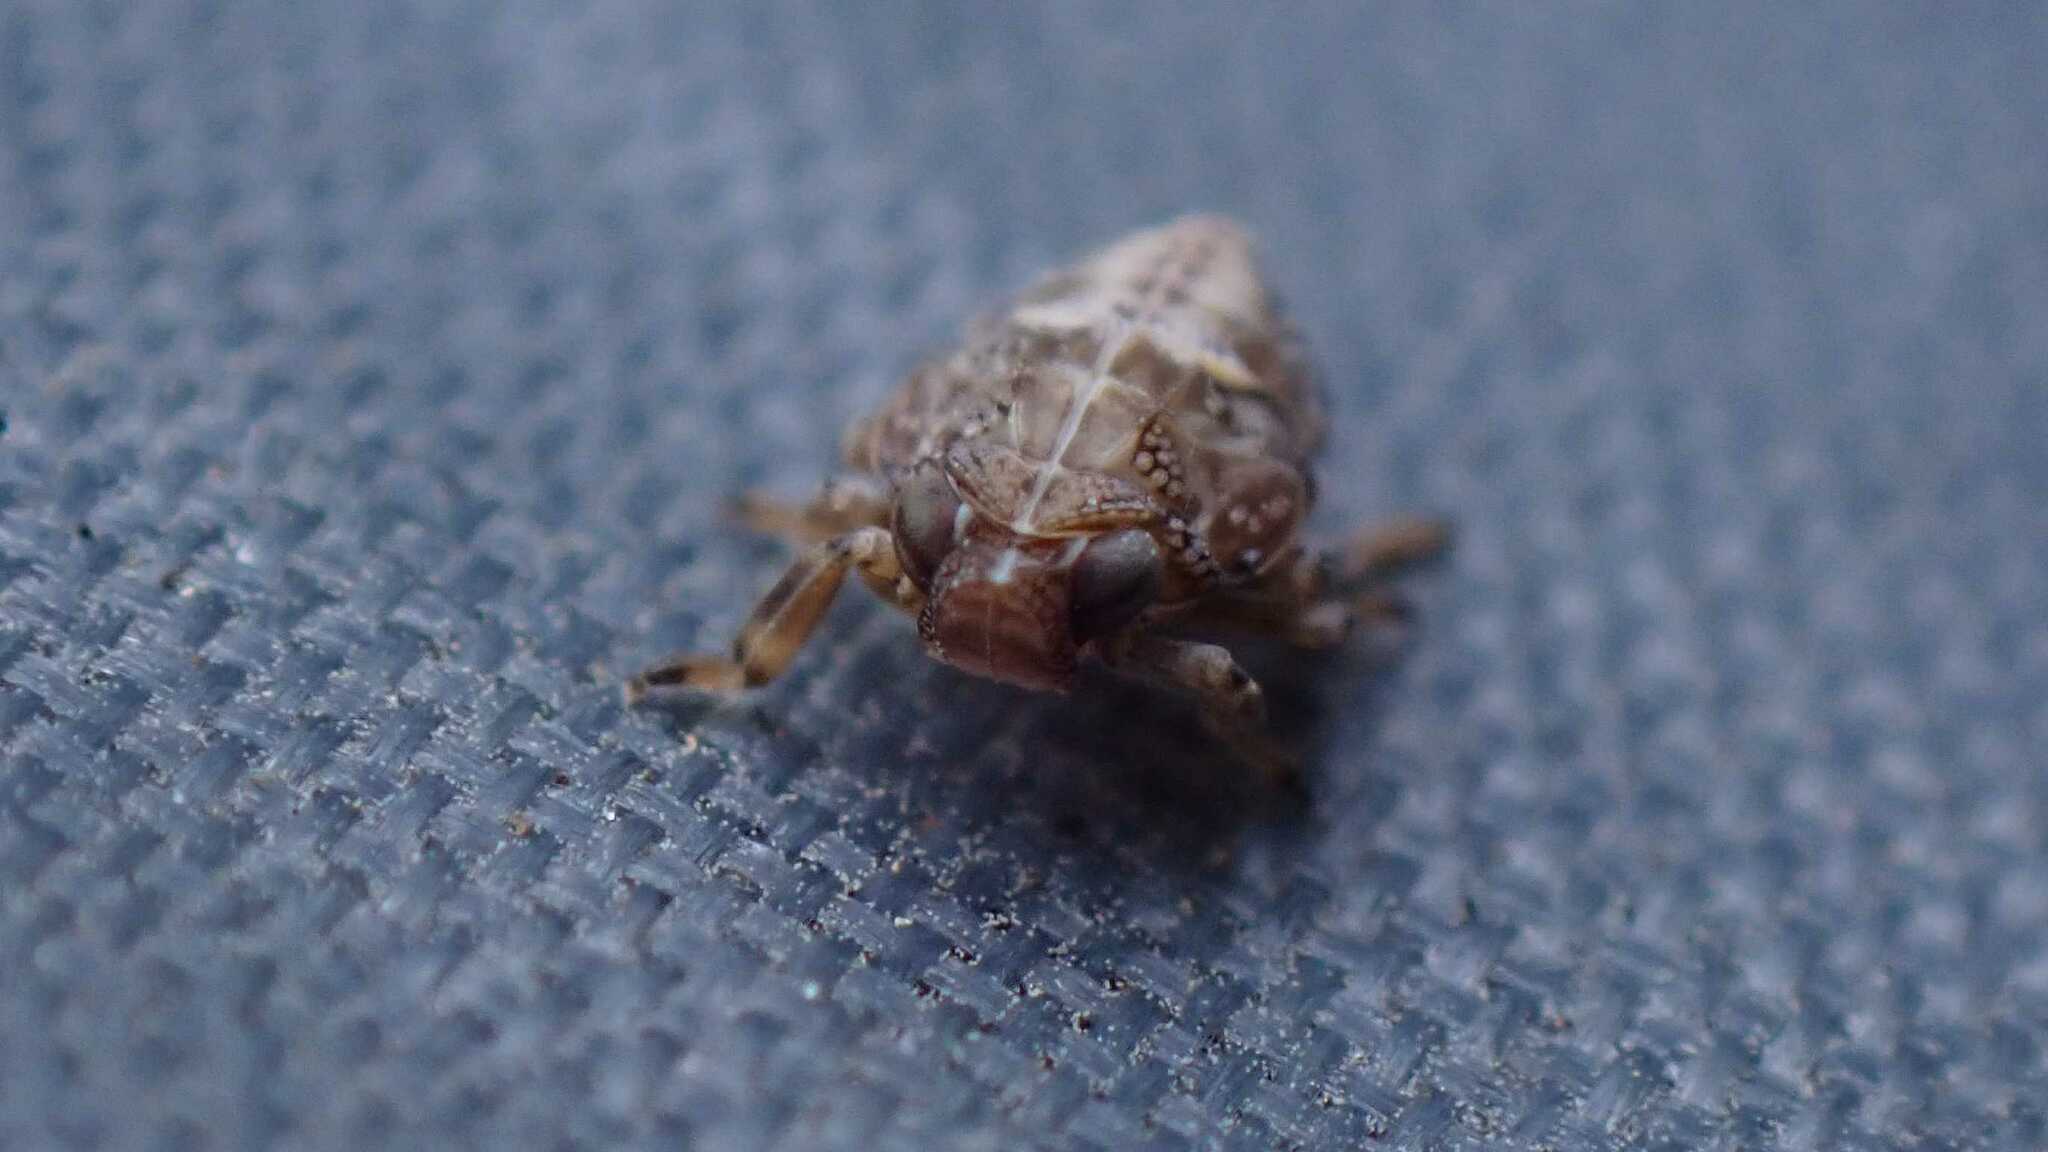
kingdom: Animalia
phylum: Arthropoda
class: Insecta
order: Hemiptera
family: Issidae
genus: Issus
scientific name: Issus coleoptratus
